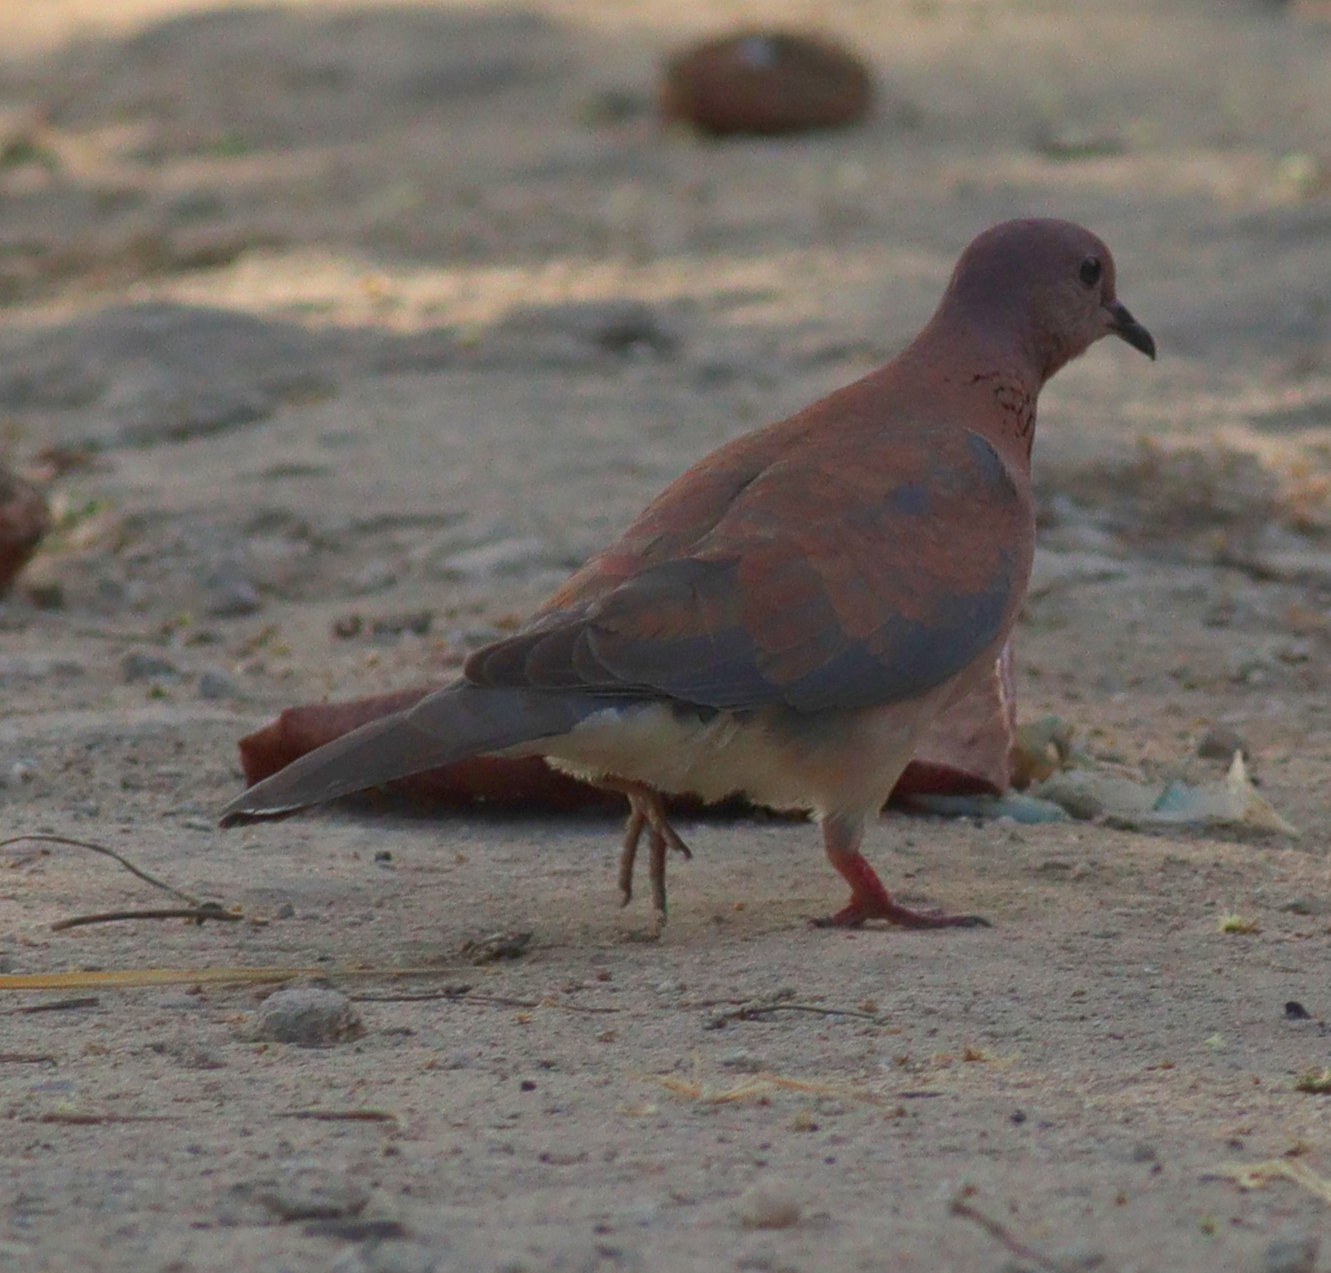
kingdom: Animalia
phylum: Chordata
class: Aves
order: Columbiformes
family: Columbidae
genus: Spilopelia
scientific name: Spilopelia senegalensis
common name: Laughing dove
